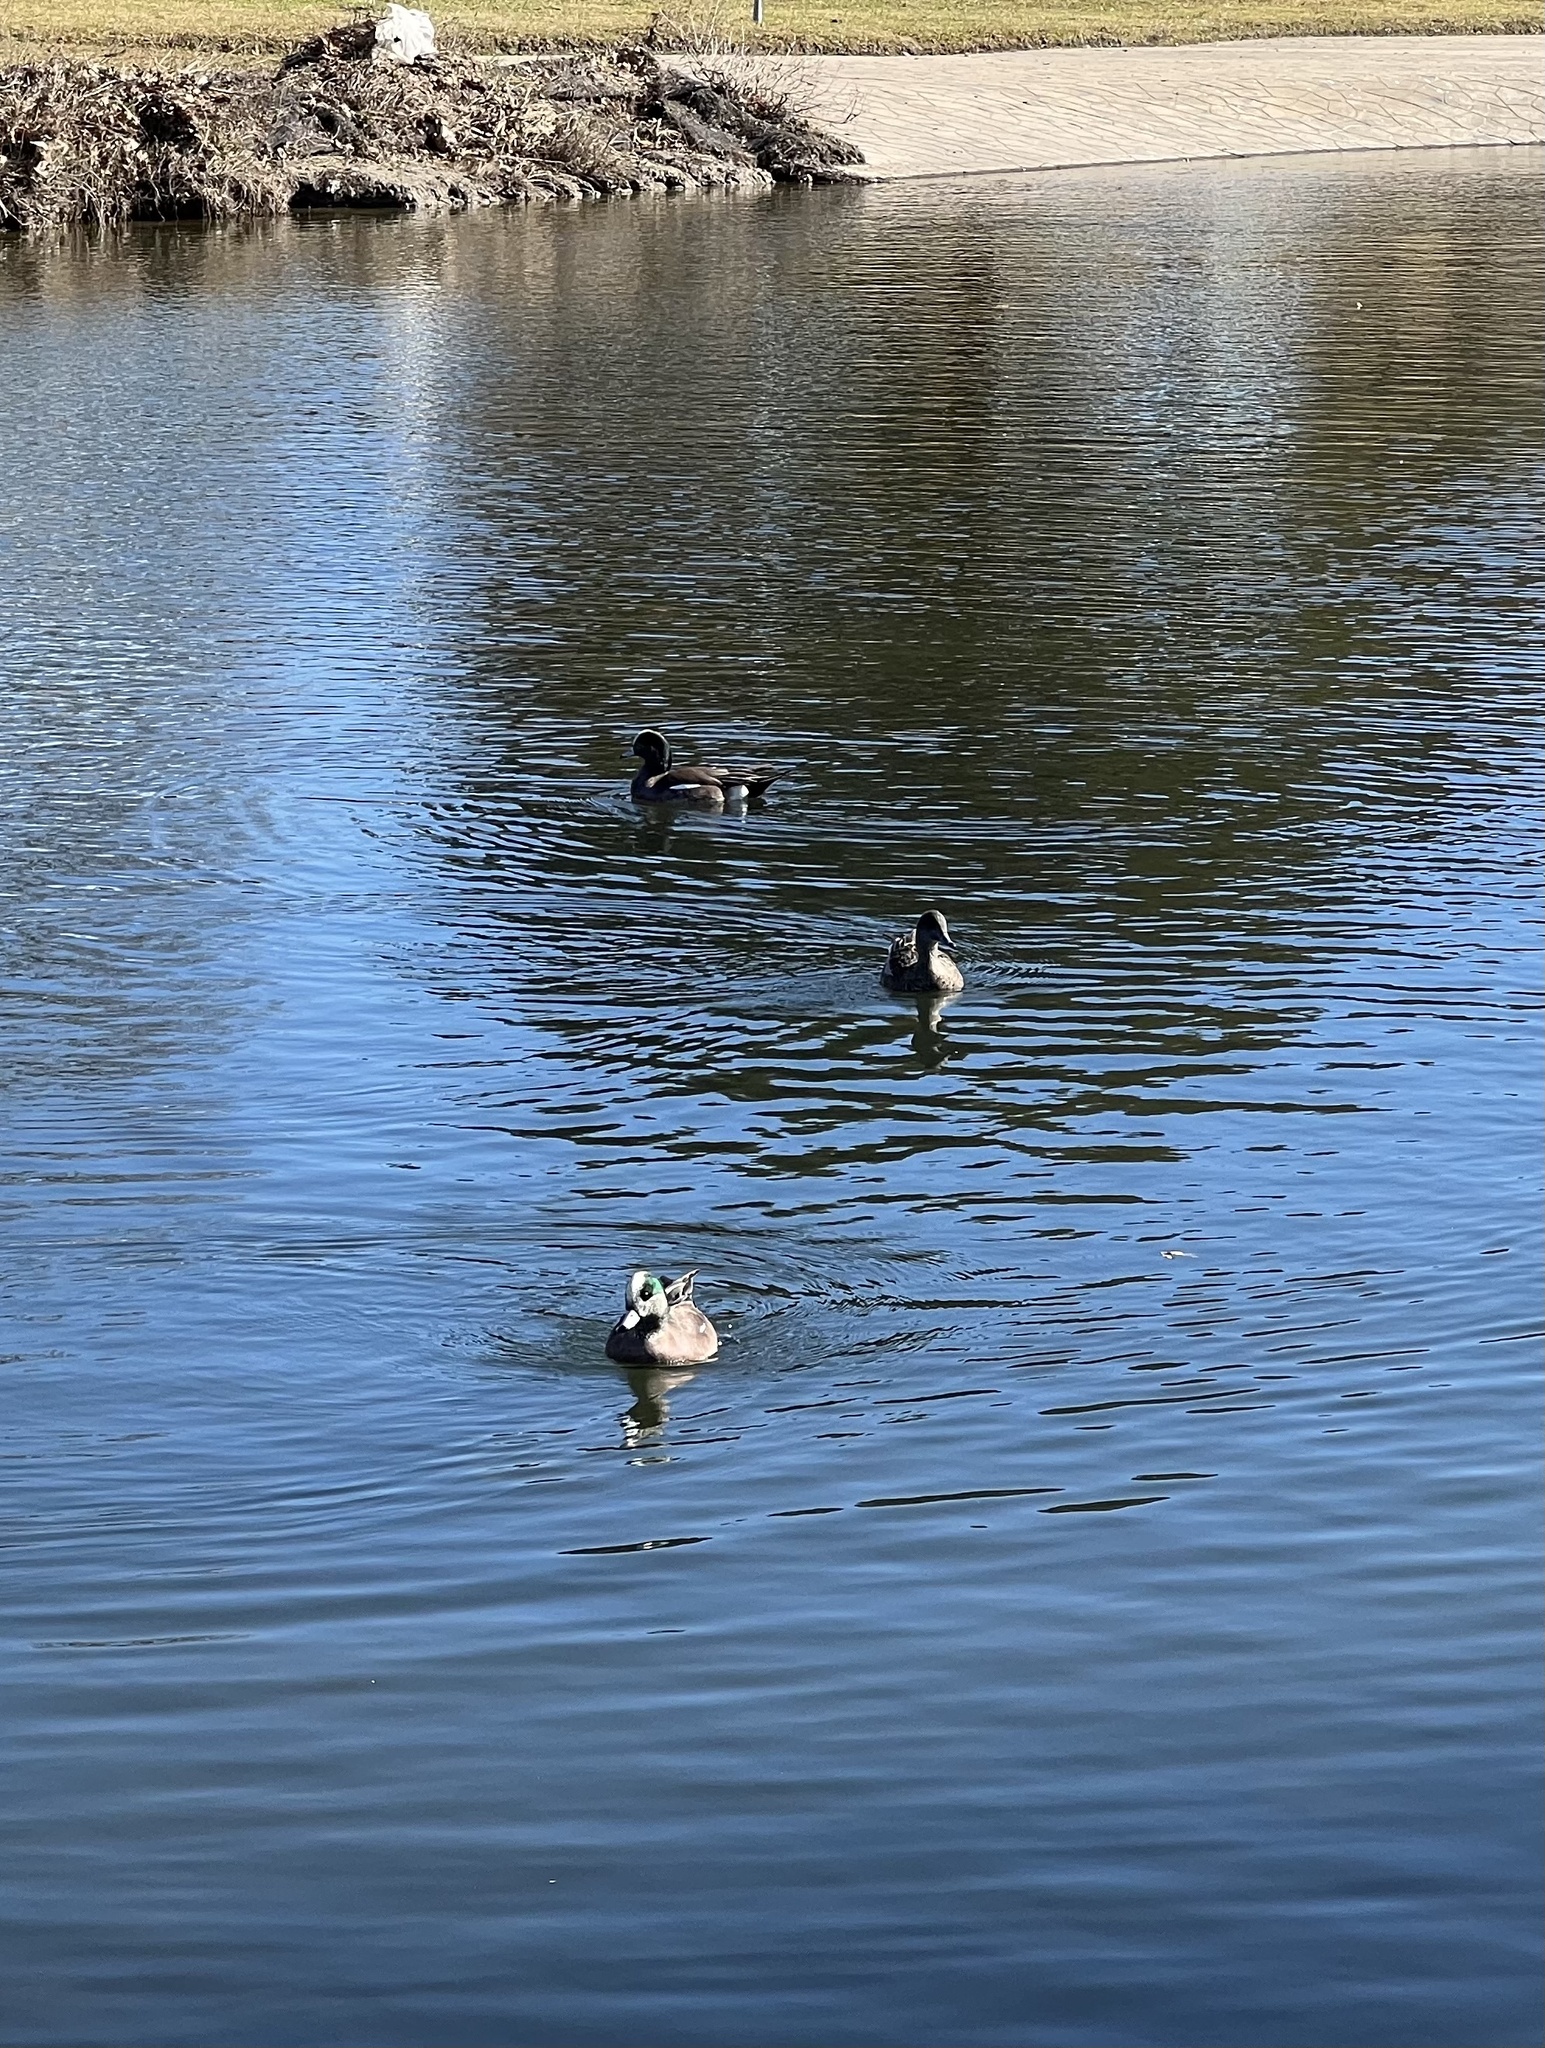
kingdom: Animalia
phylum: Chordata
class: Aves
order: Anseriformes
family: Anatidae
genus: Mareca
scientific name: Mareca americana
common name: American wigeon
